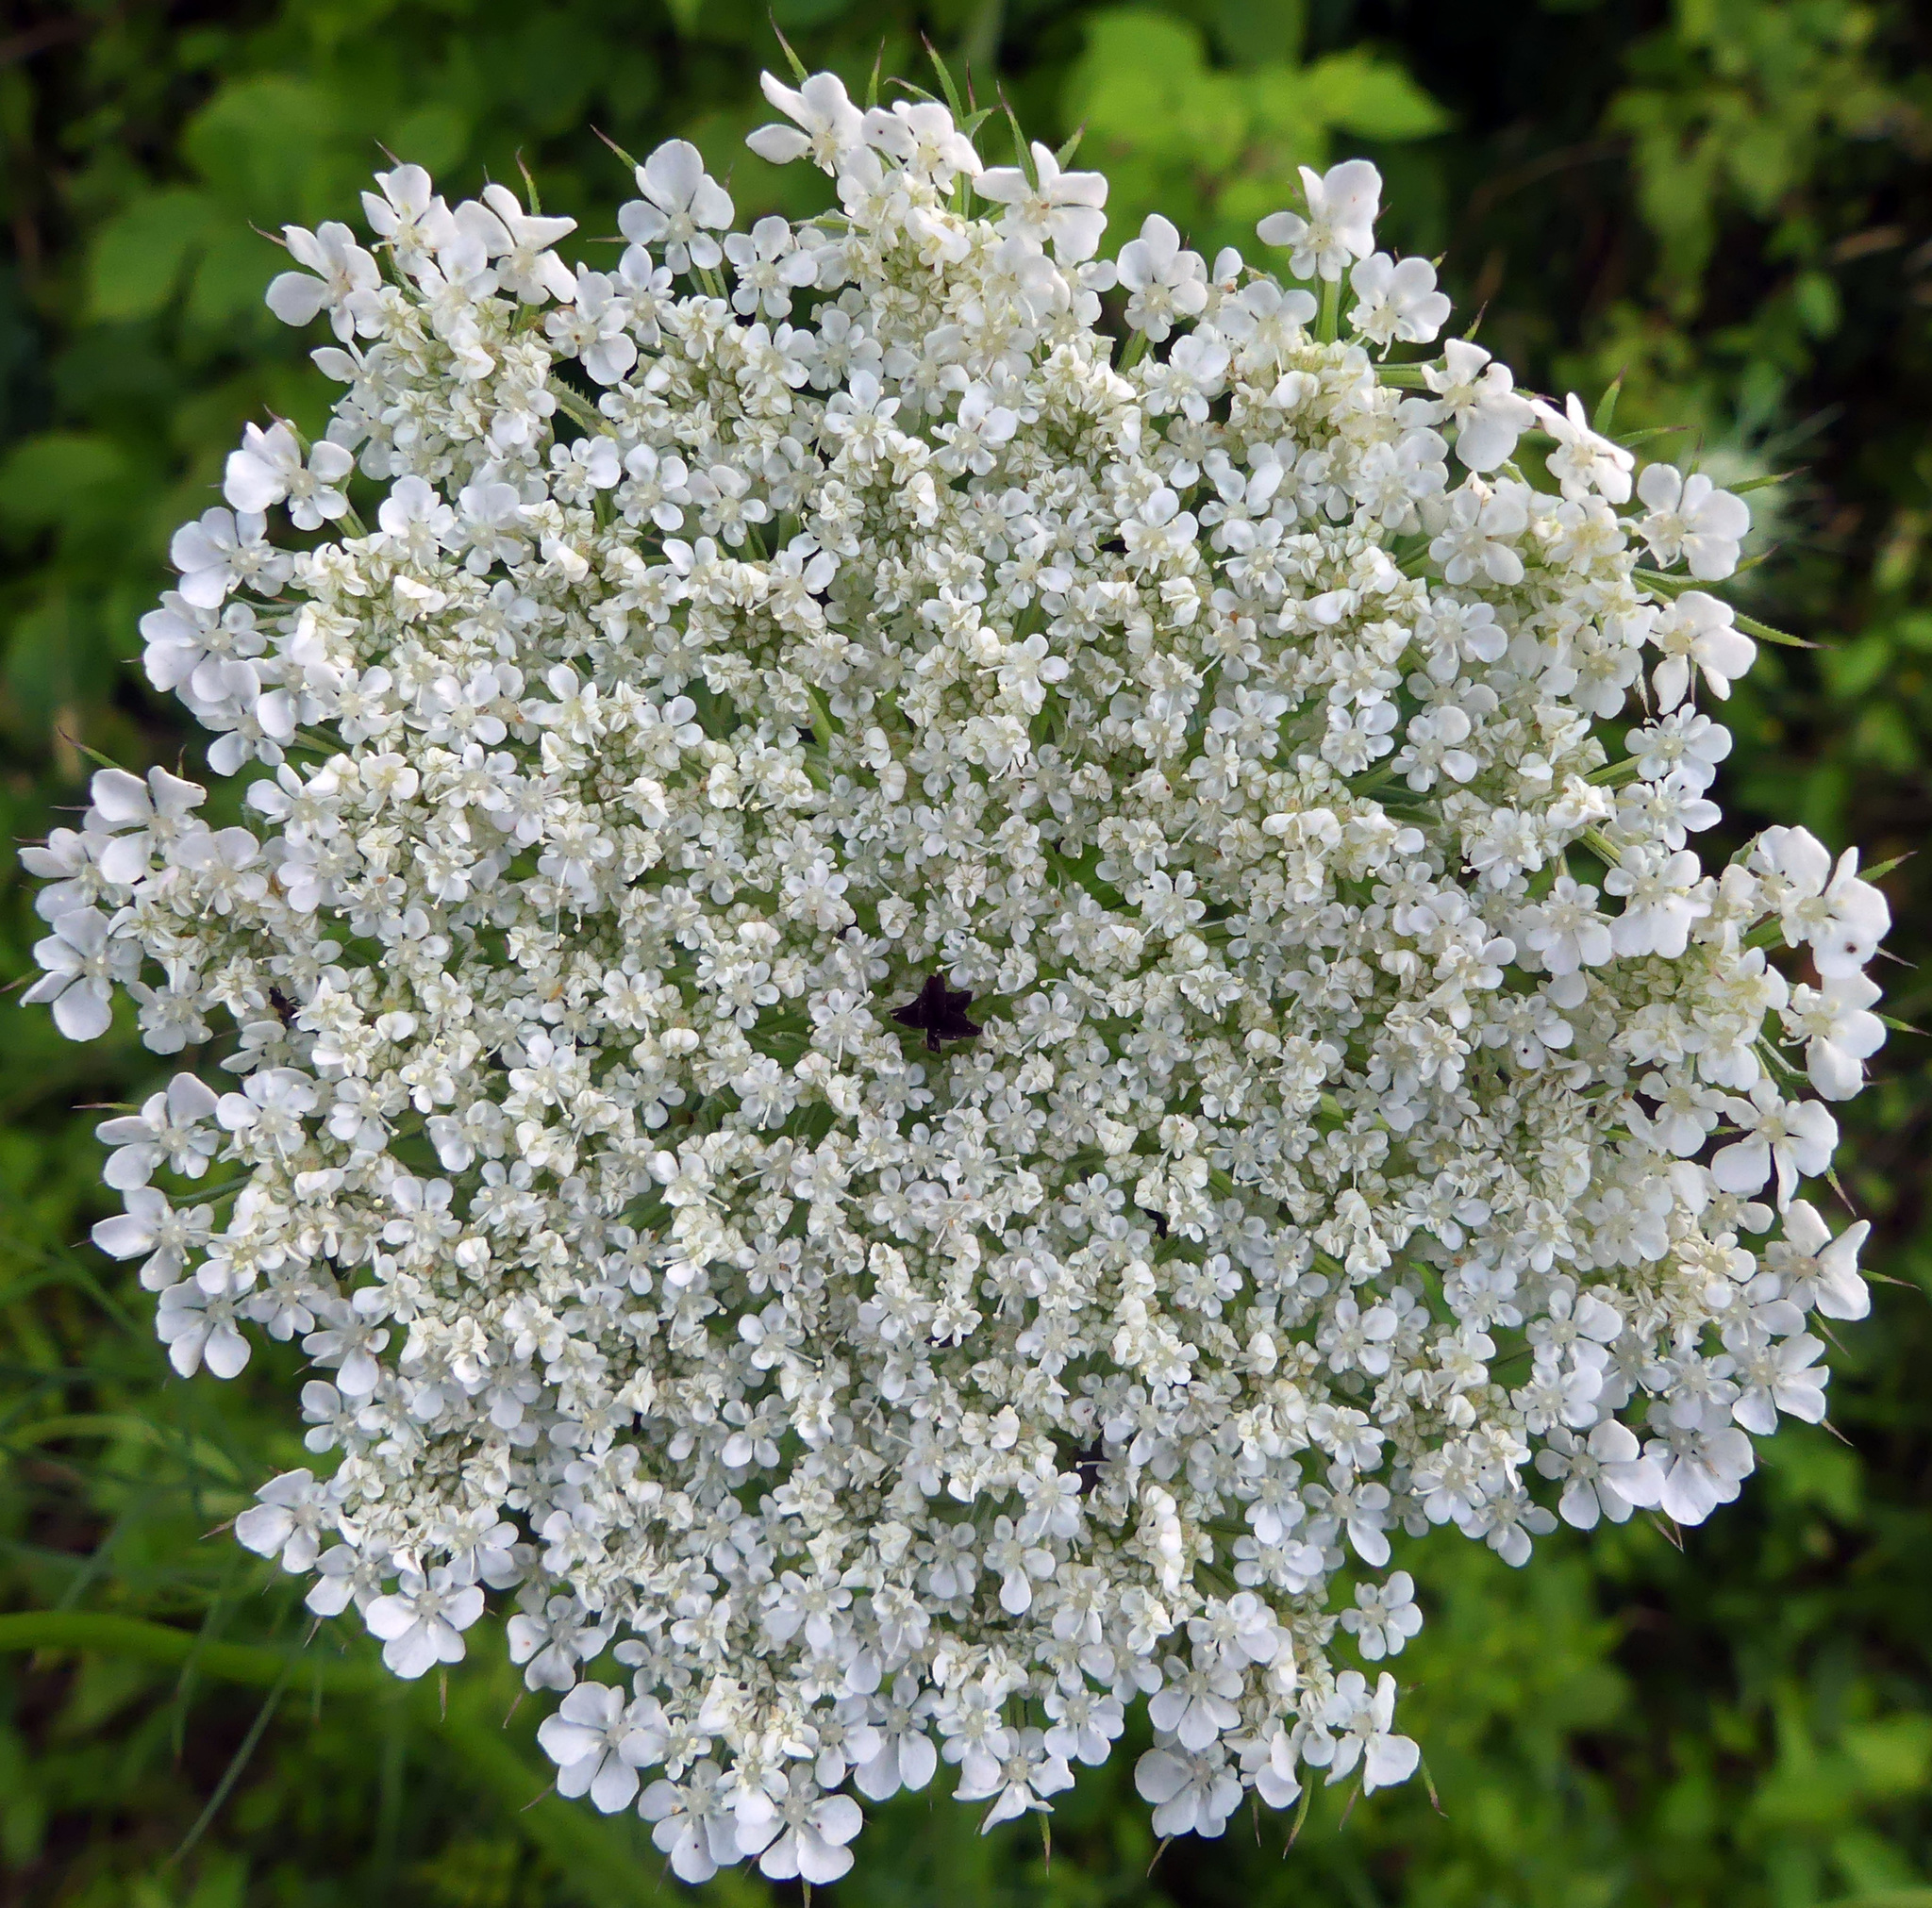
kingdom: Plantae
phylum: Tracheophyta
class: Magnoliopsida
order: Apiales
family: Apiaceae
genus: Daucus
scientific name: Daucus carota
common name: Wild carrot
